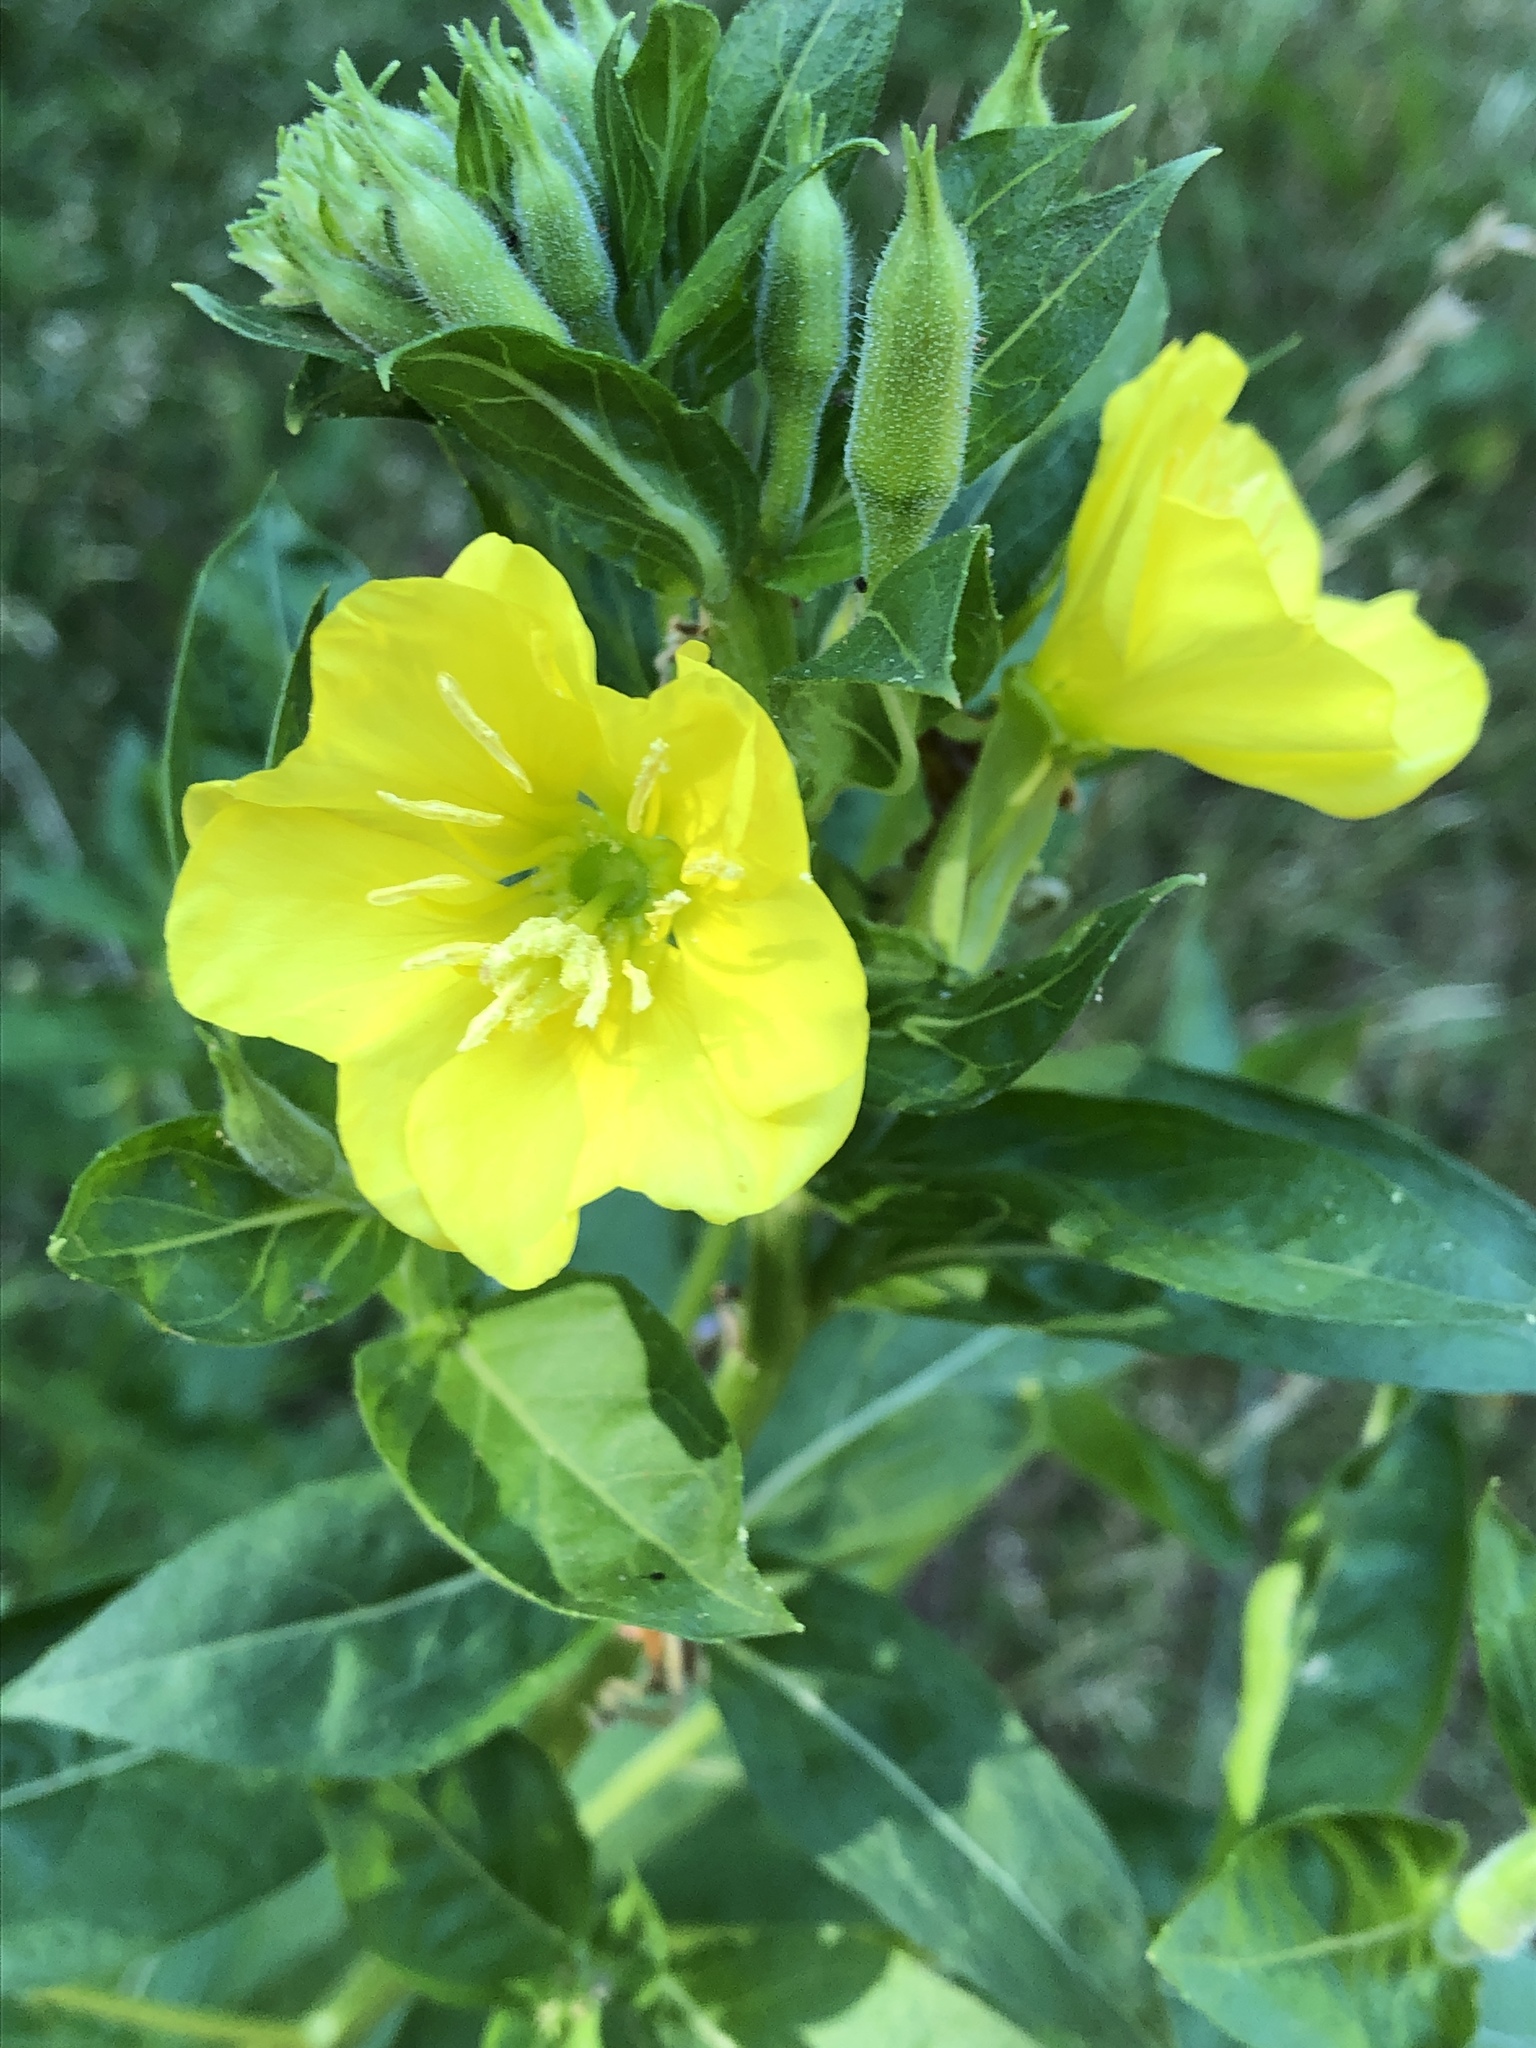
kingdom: Plantae
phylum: Tracheophyta
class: Magnoliopsida
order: Myrtales
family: Onagraceae
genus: Oenothera
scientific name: Oenothera biennis
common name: Common evening-primrose
